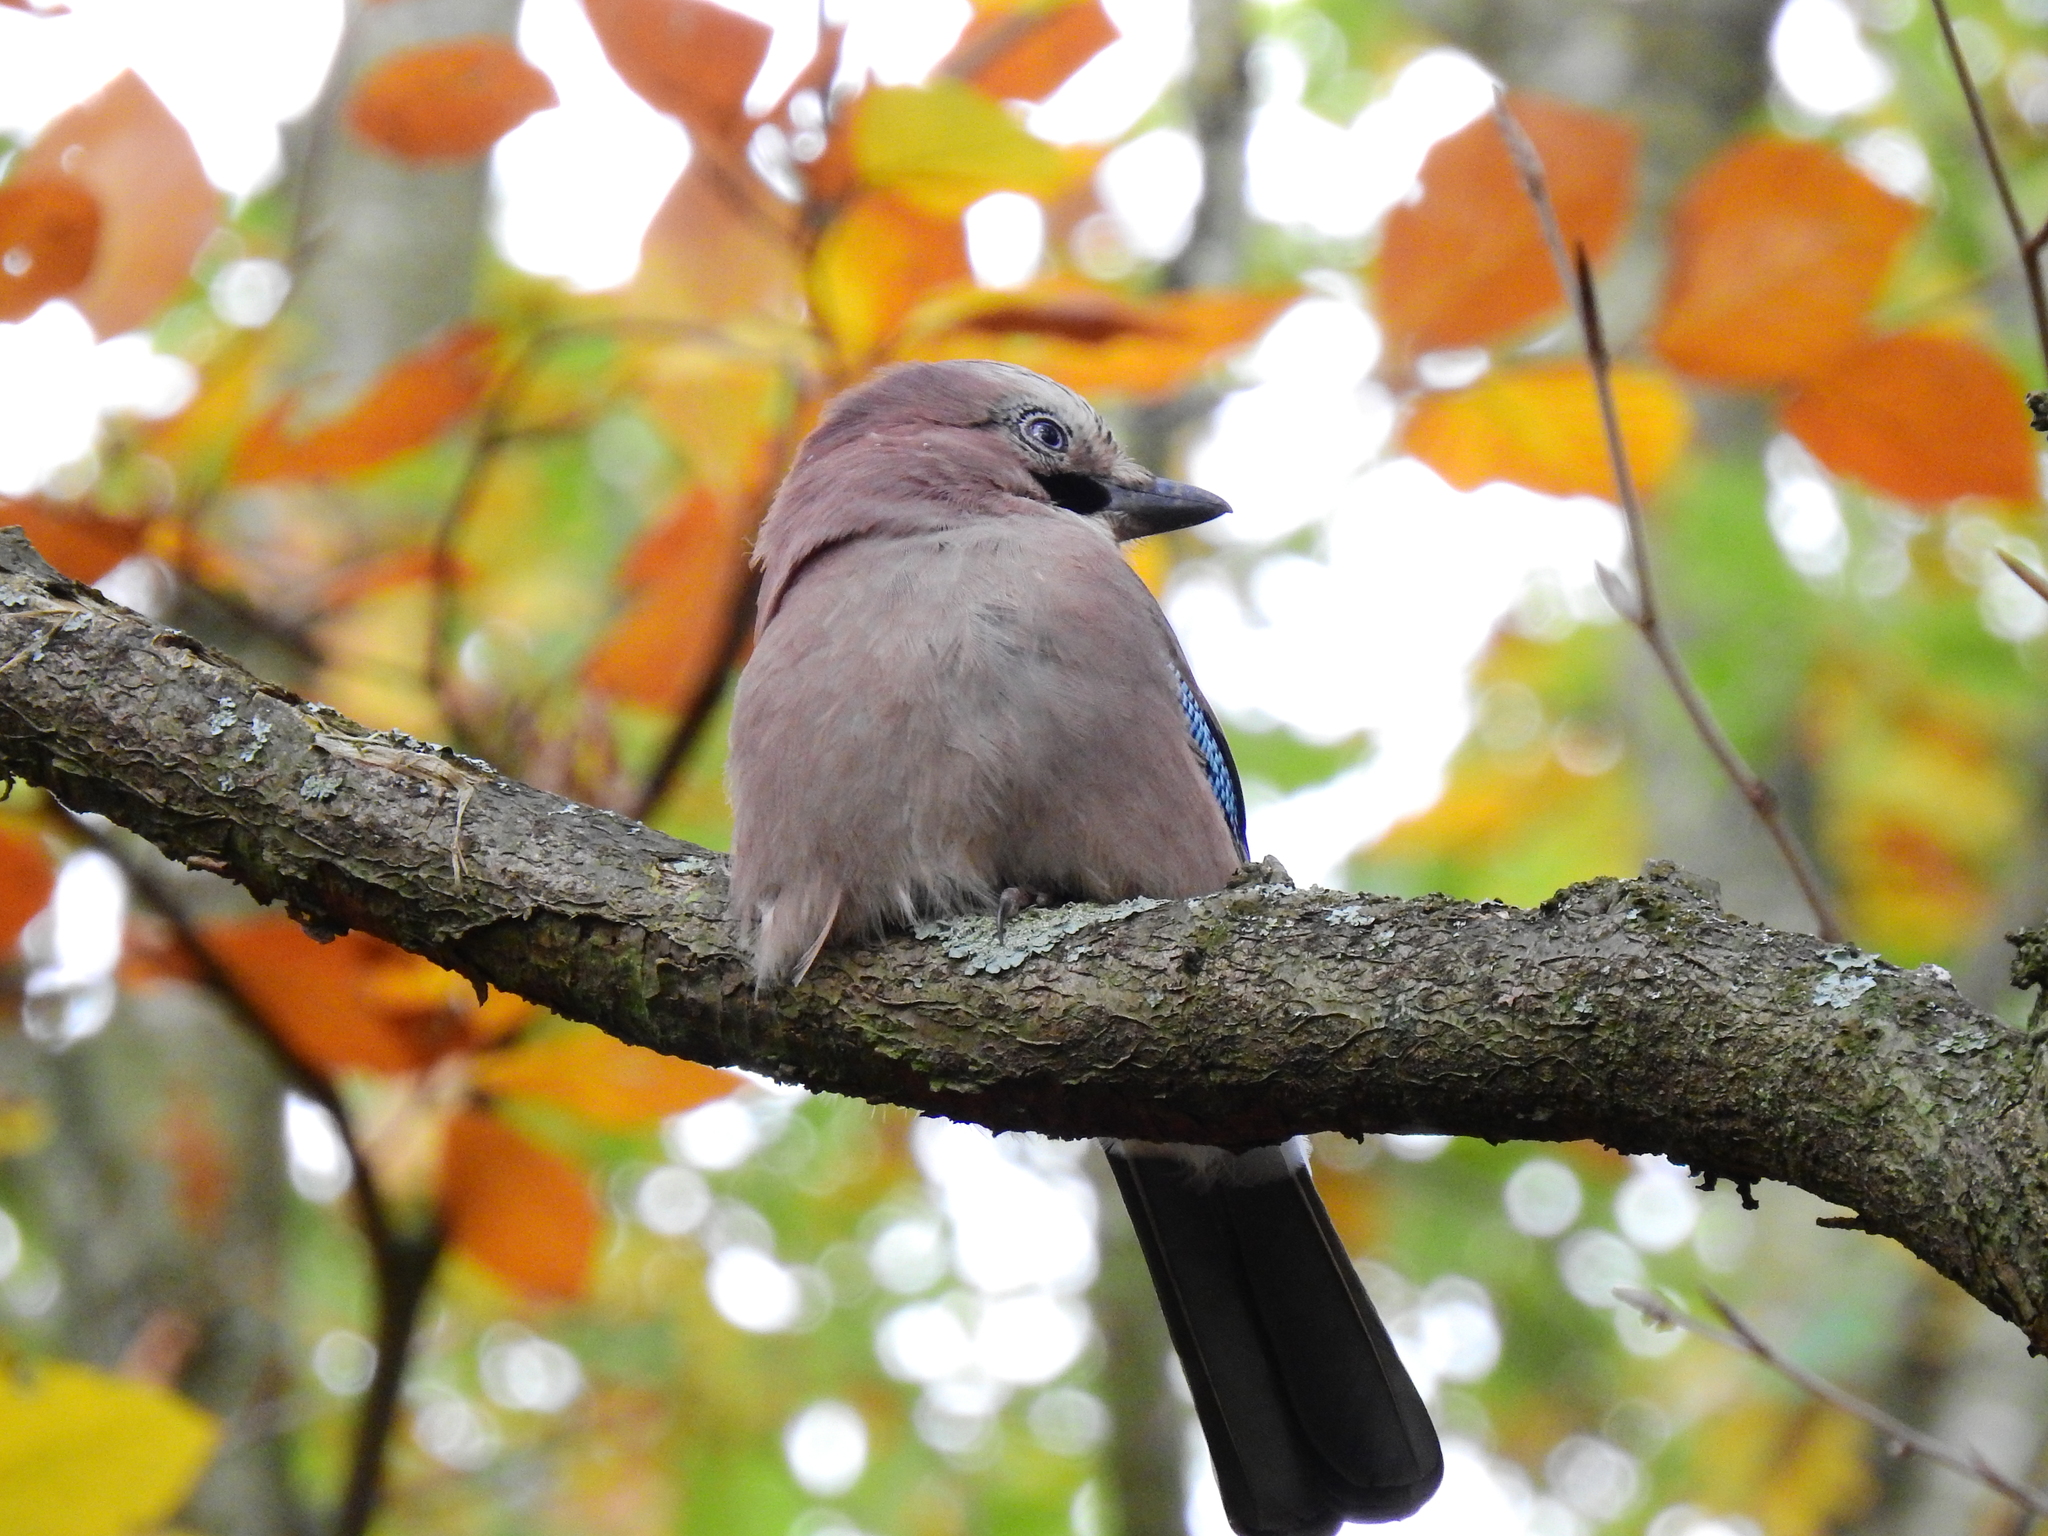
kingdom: Animalia
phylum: Chordata
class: Aves
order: Passeriformes
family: Corvidae
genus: Garrulus
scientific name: Garrulus glandarius
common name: Eurasian jay
